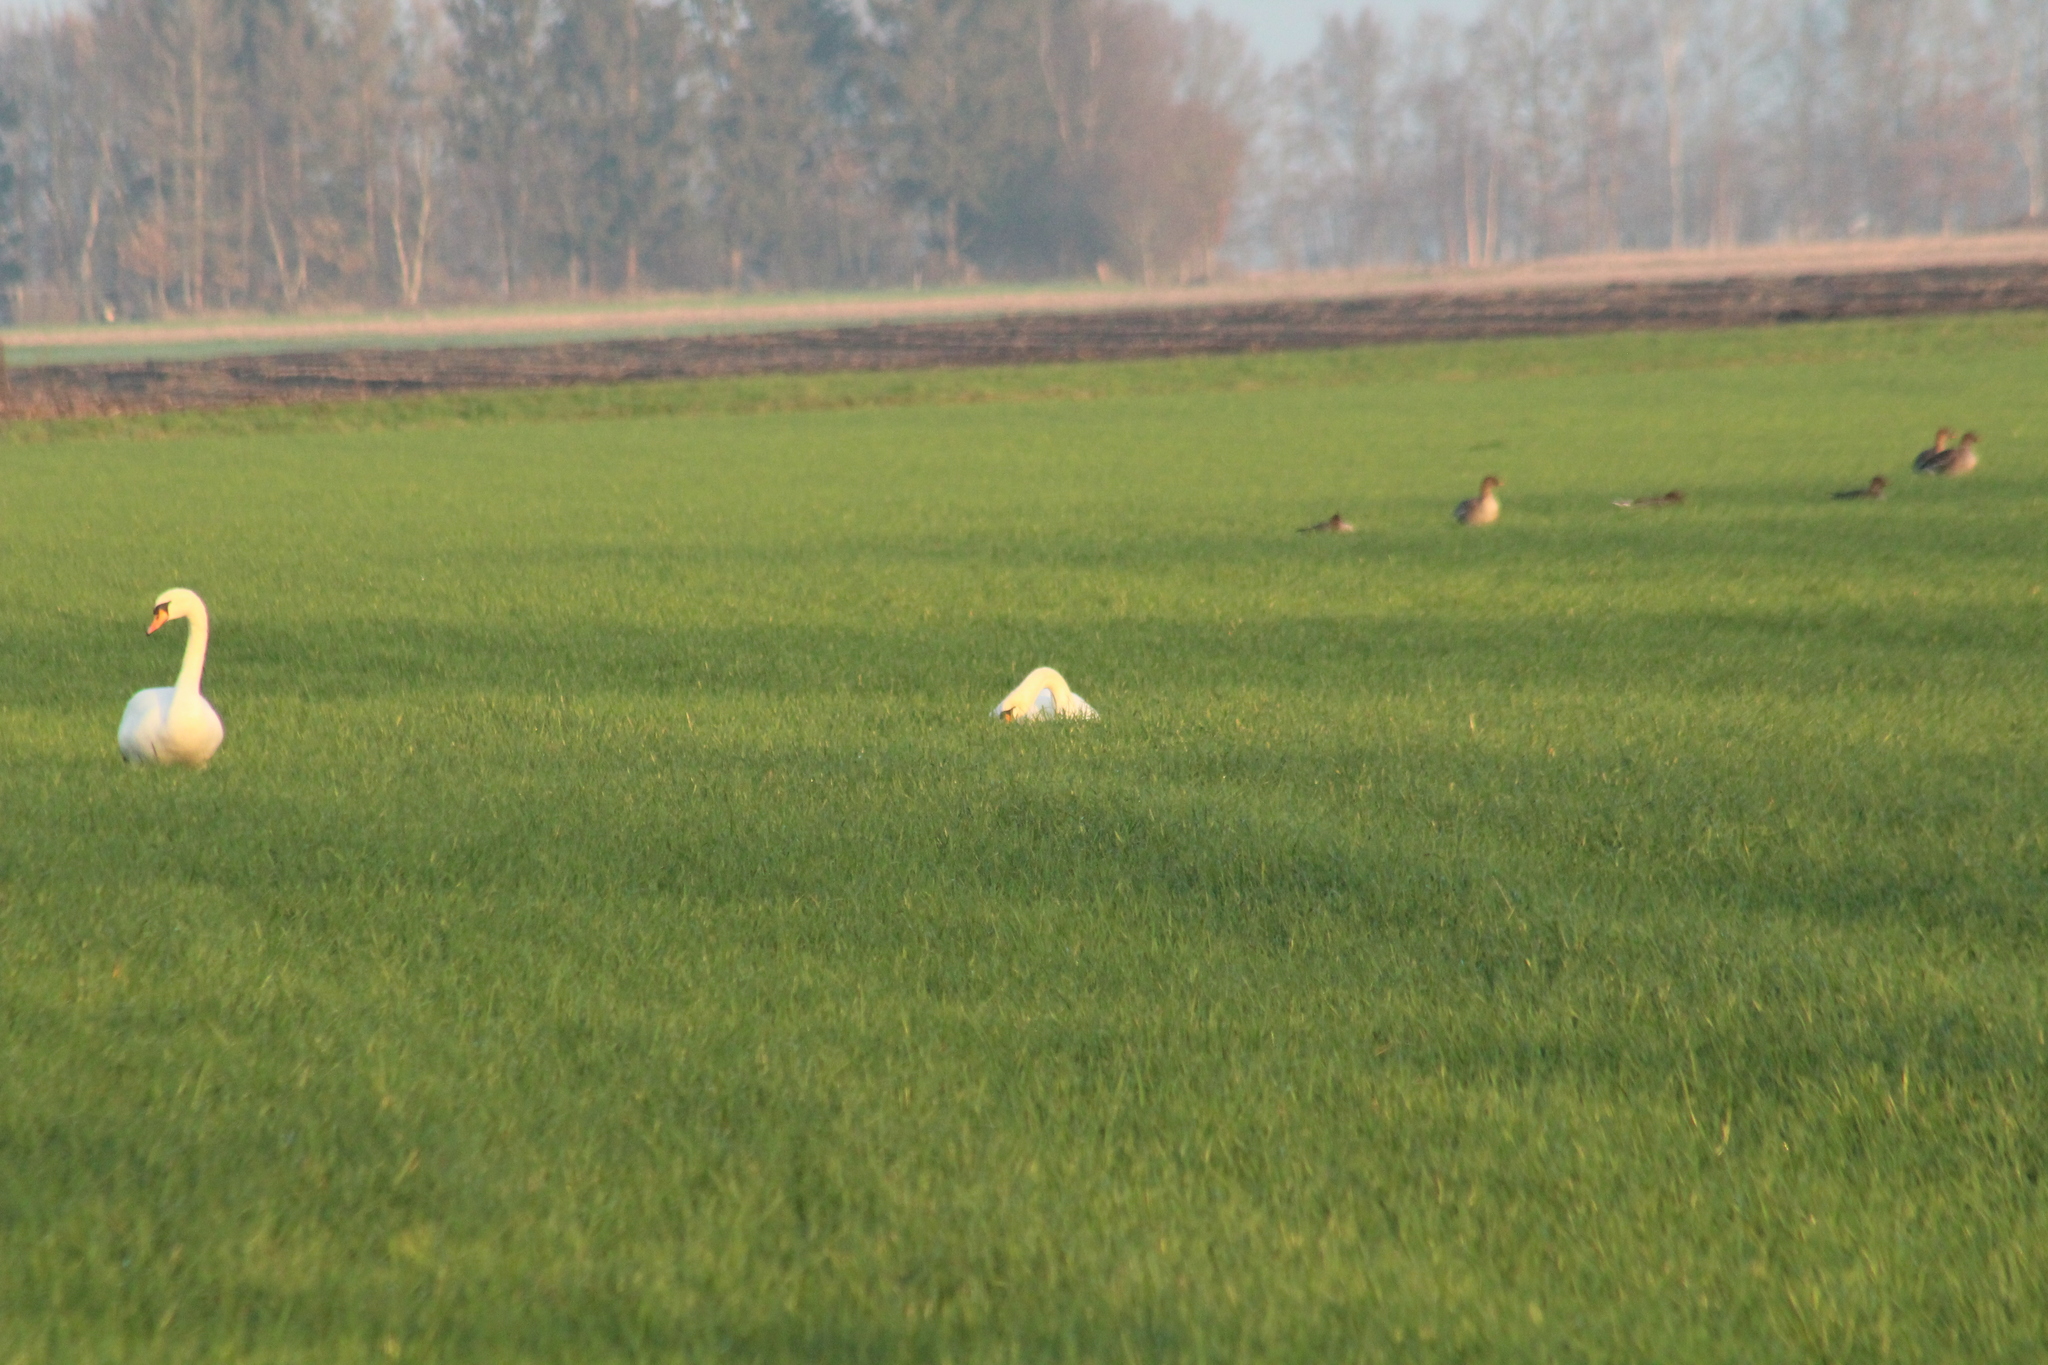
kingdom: Animalia
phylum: Chordata
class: Aves
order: Anseriformes
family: Anatidae
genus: Cygnus
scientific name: Cygnus olor
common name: Mute swan
